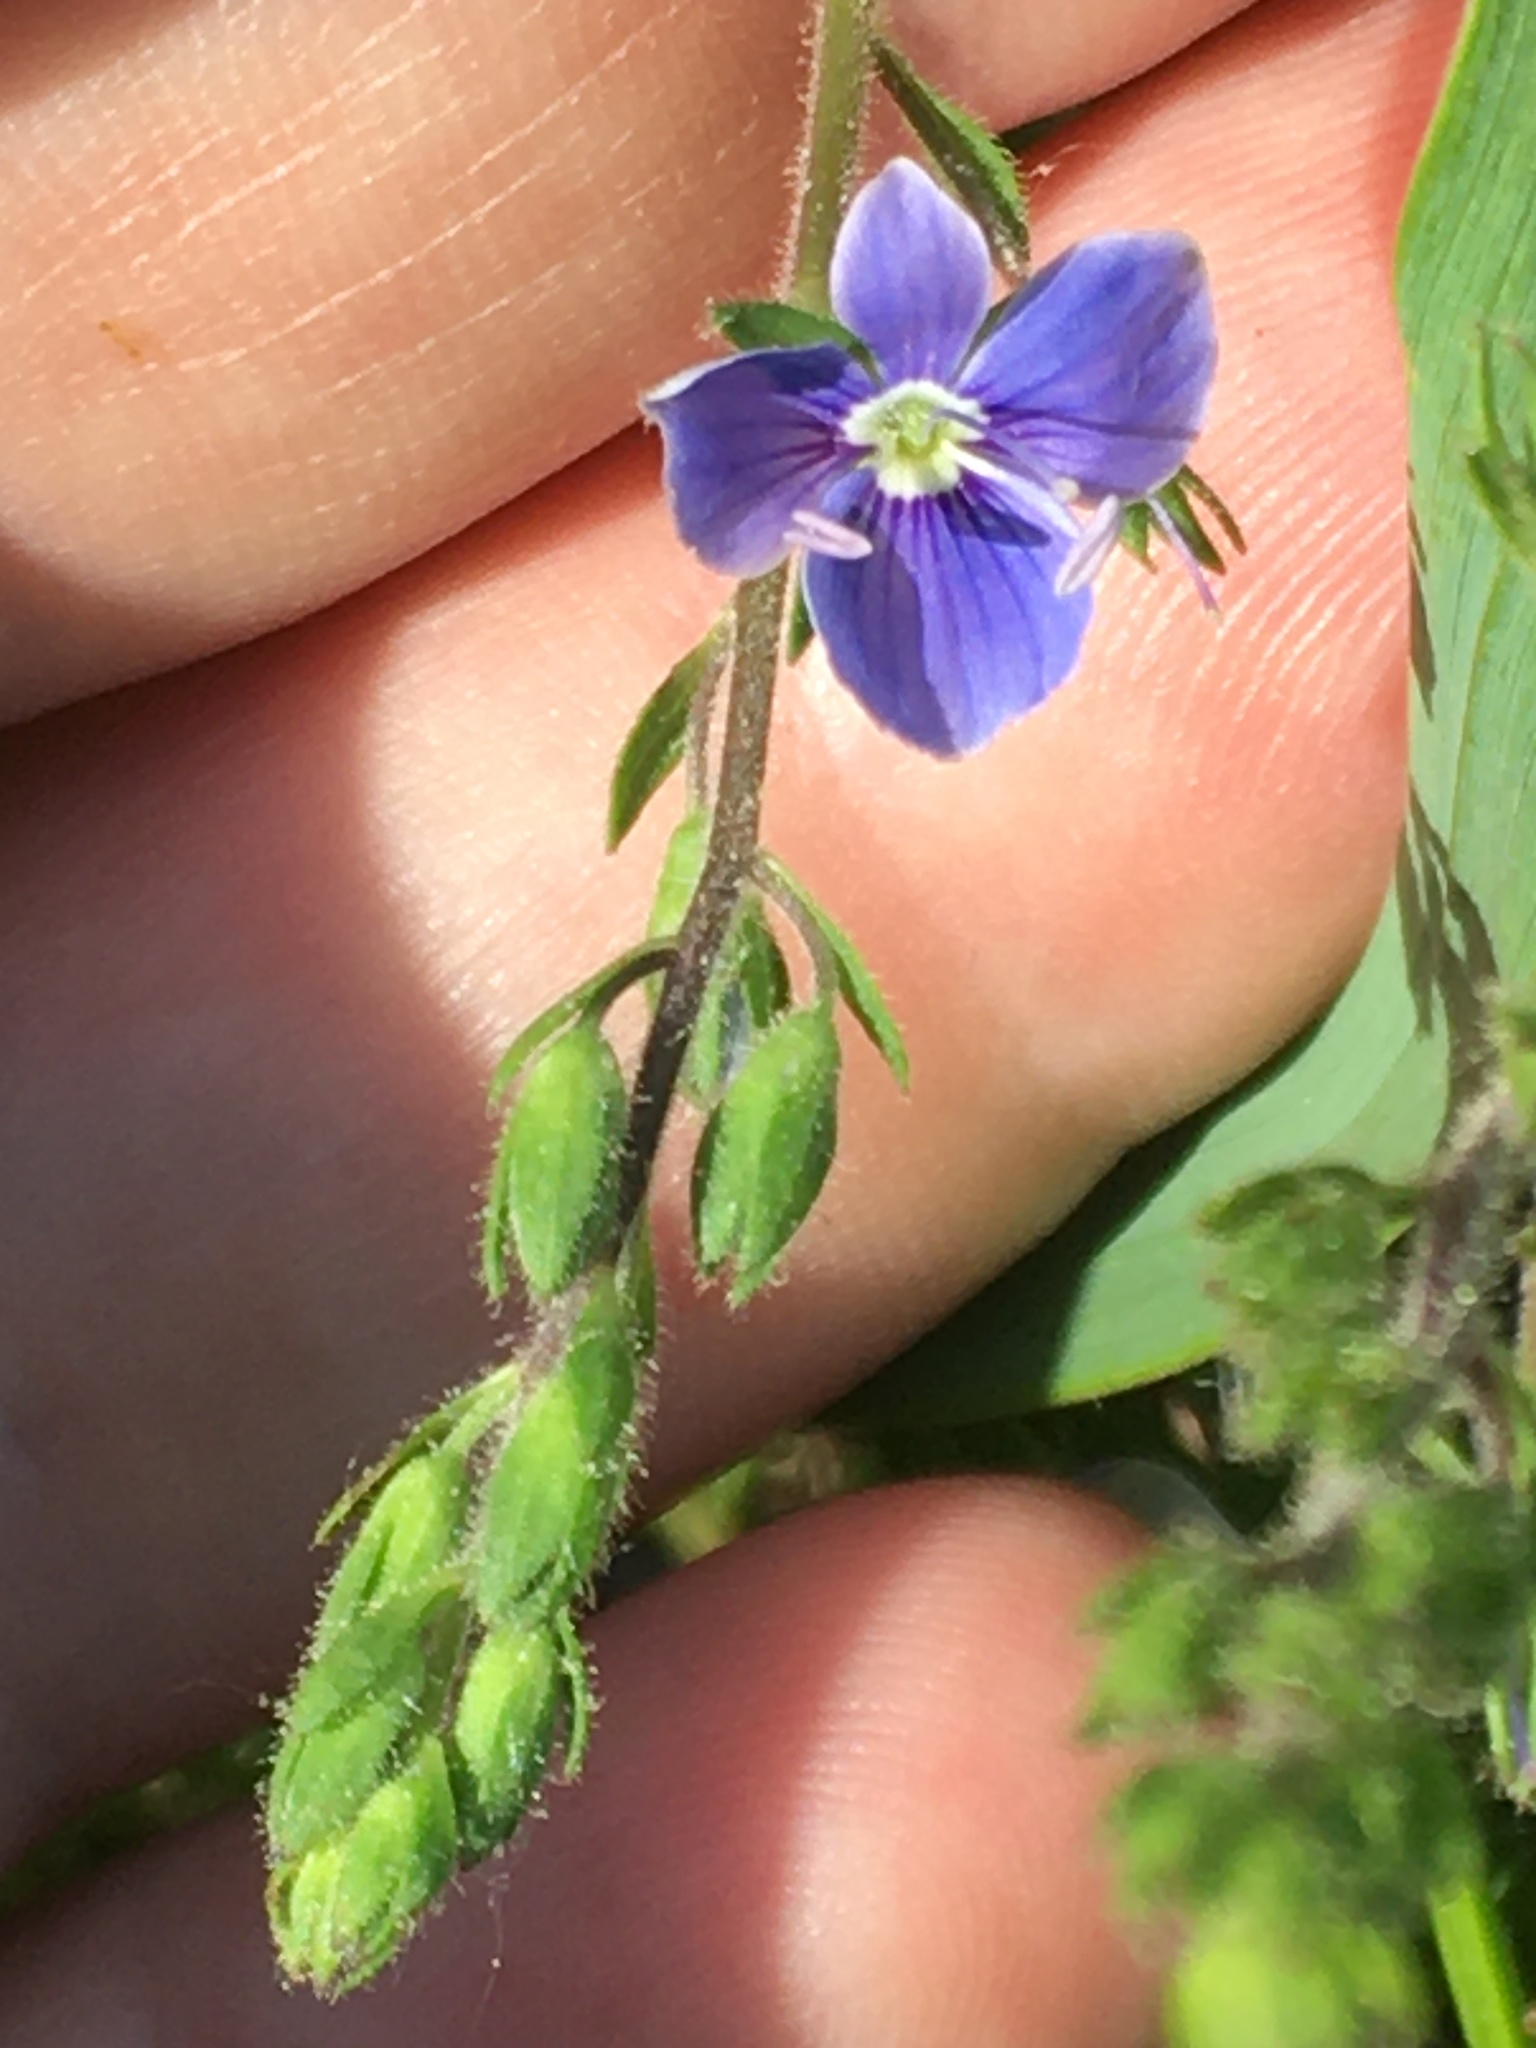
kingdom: Plantae
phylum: Tracheophyta
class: Magnoliopsida
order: Lamiales
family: Plantaginaceae
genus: Veronica
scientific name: Veronica chamaedrys
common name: Germander speedwell
